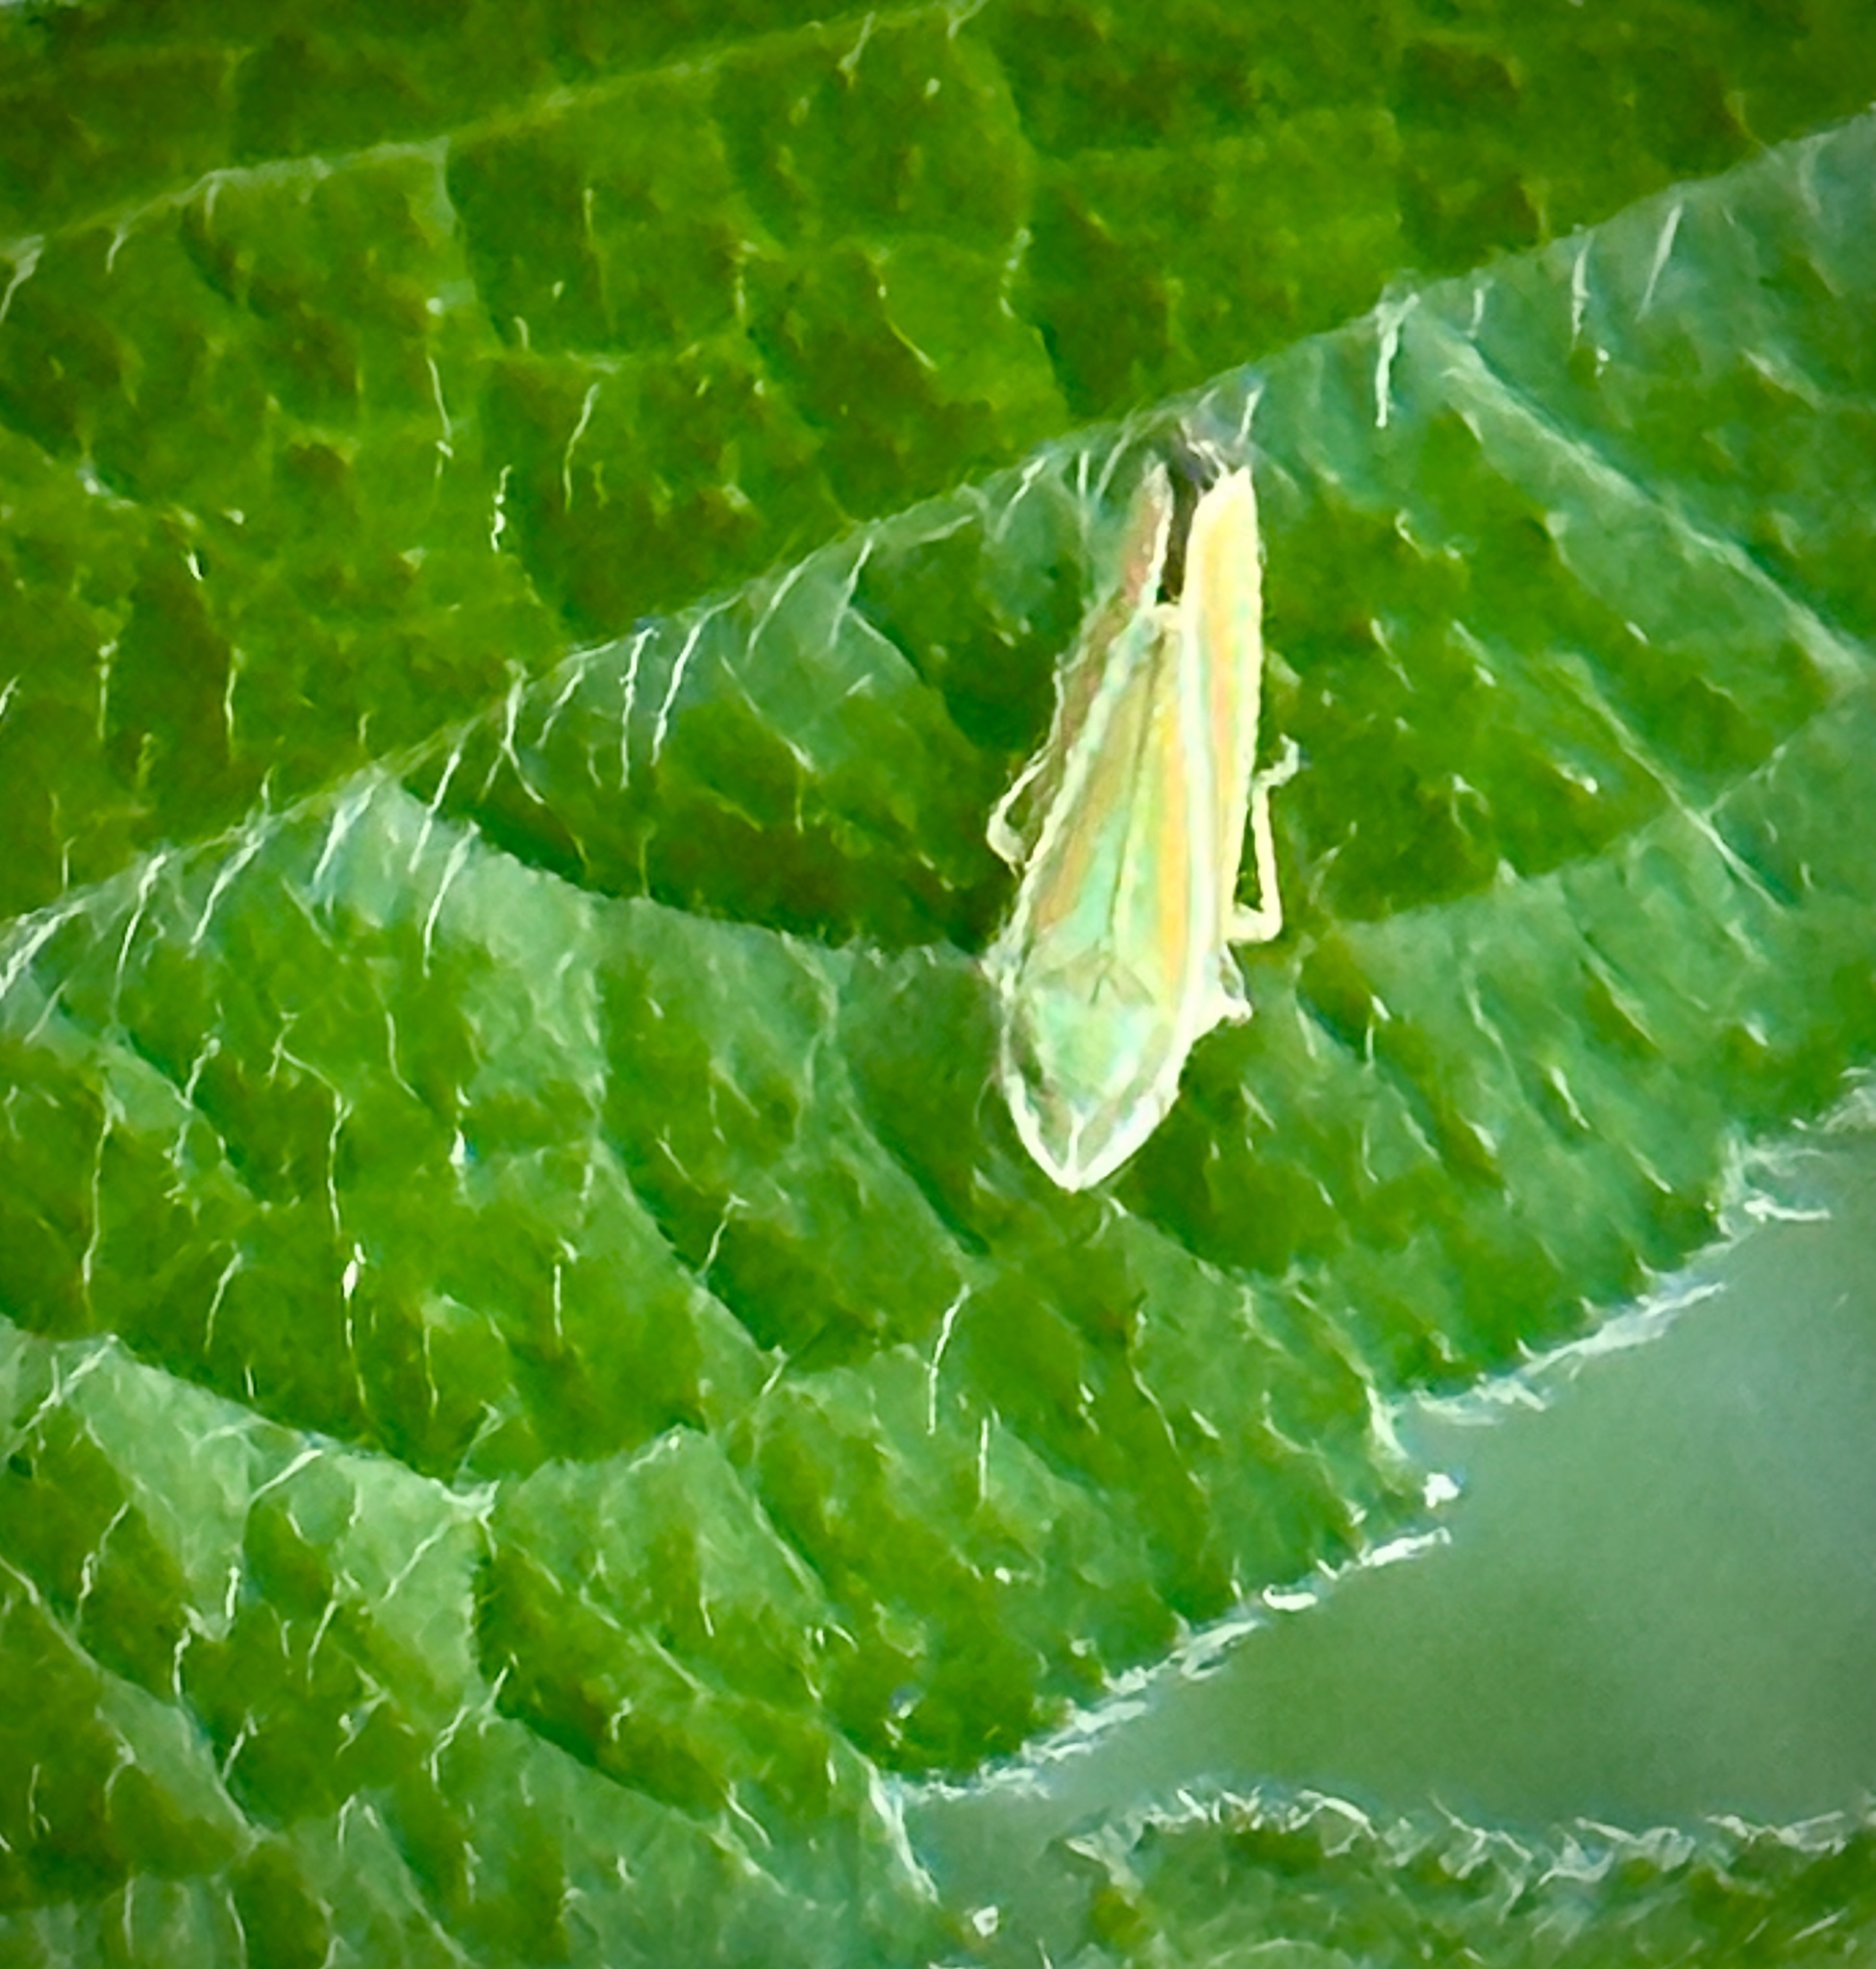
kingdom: Animalia
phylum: Arthropoda
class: Insecta
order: Hemiptera
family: Cicadellidae
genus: Graphocephala
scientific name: Graphocephala versuta
